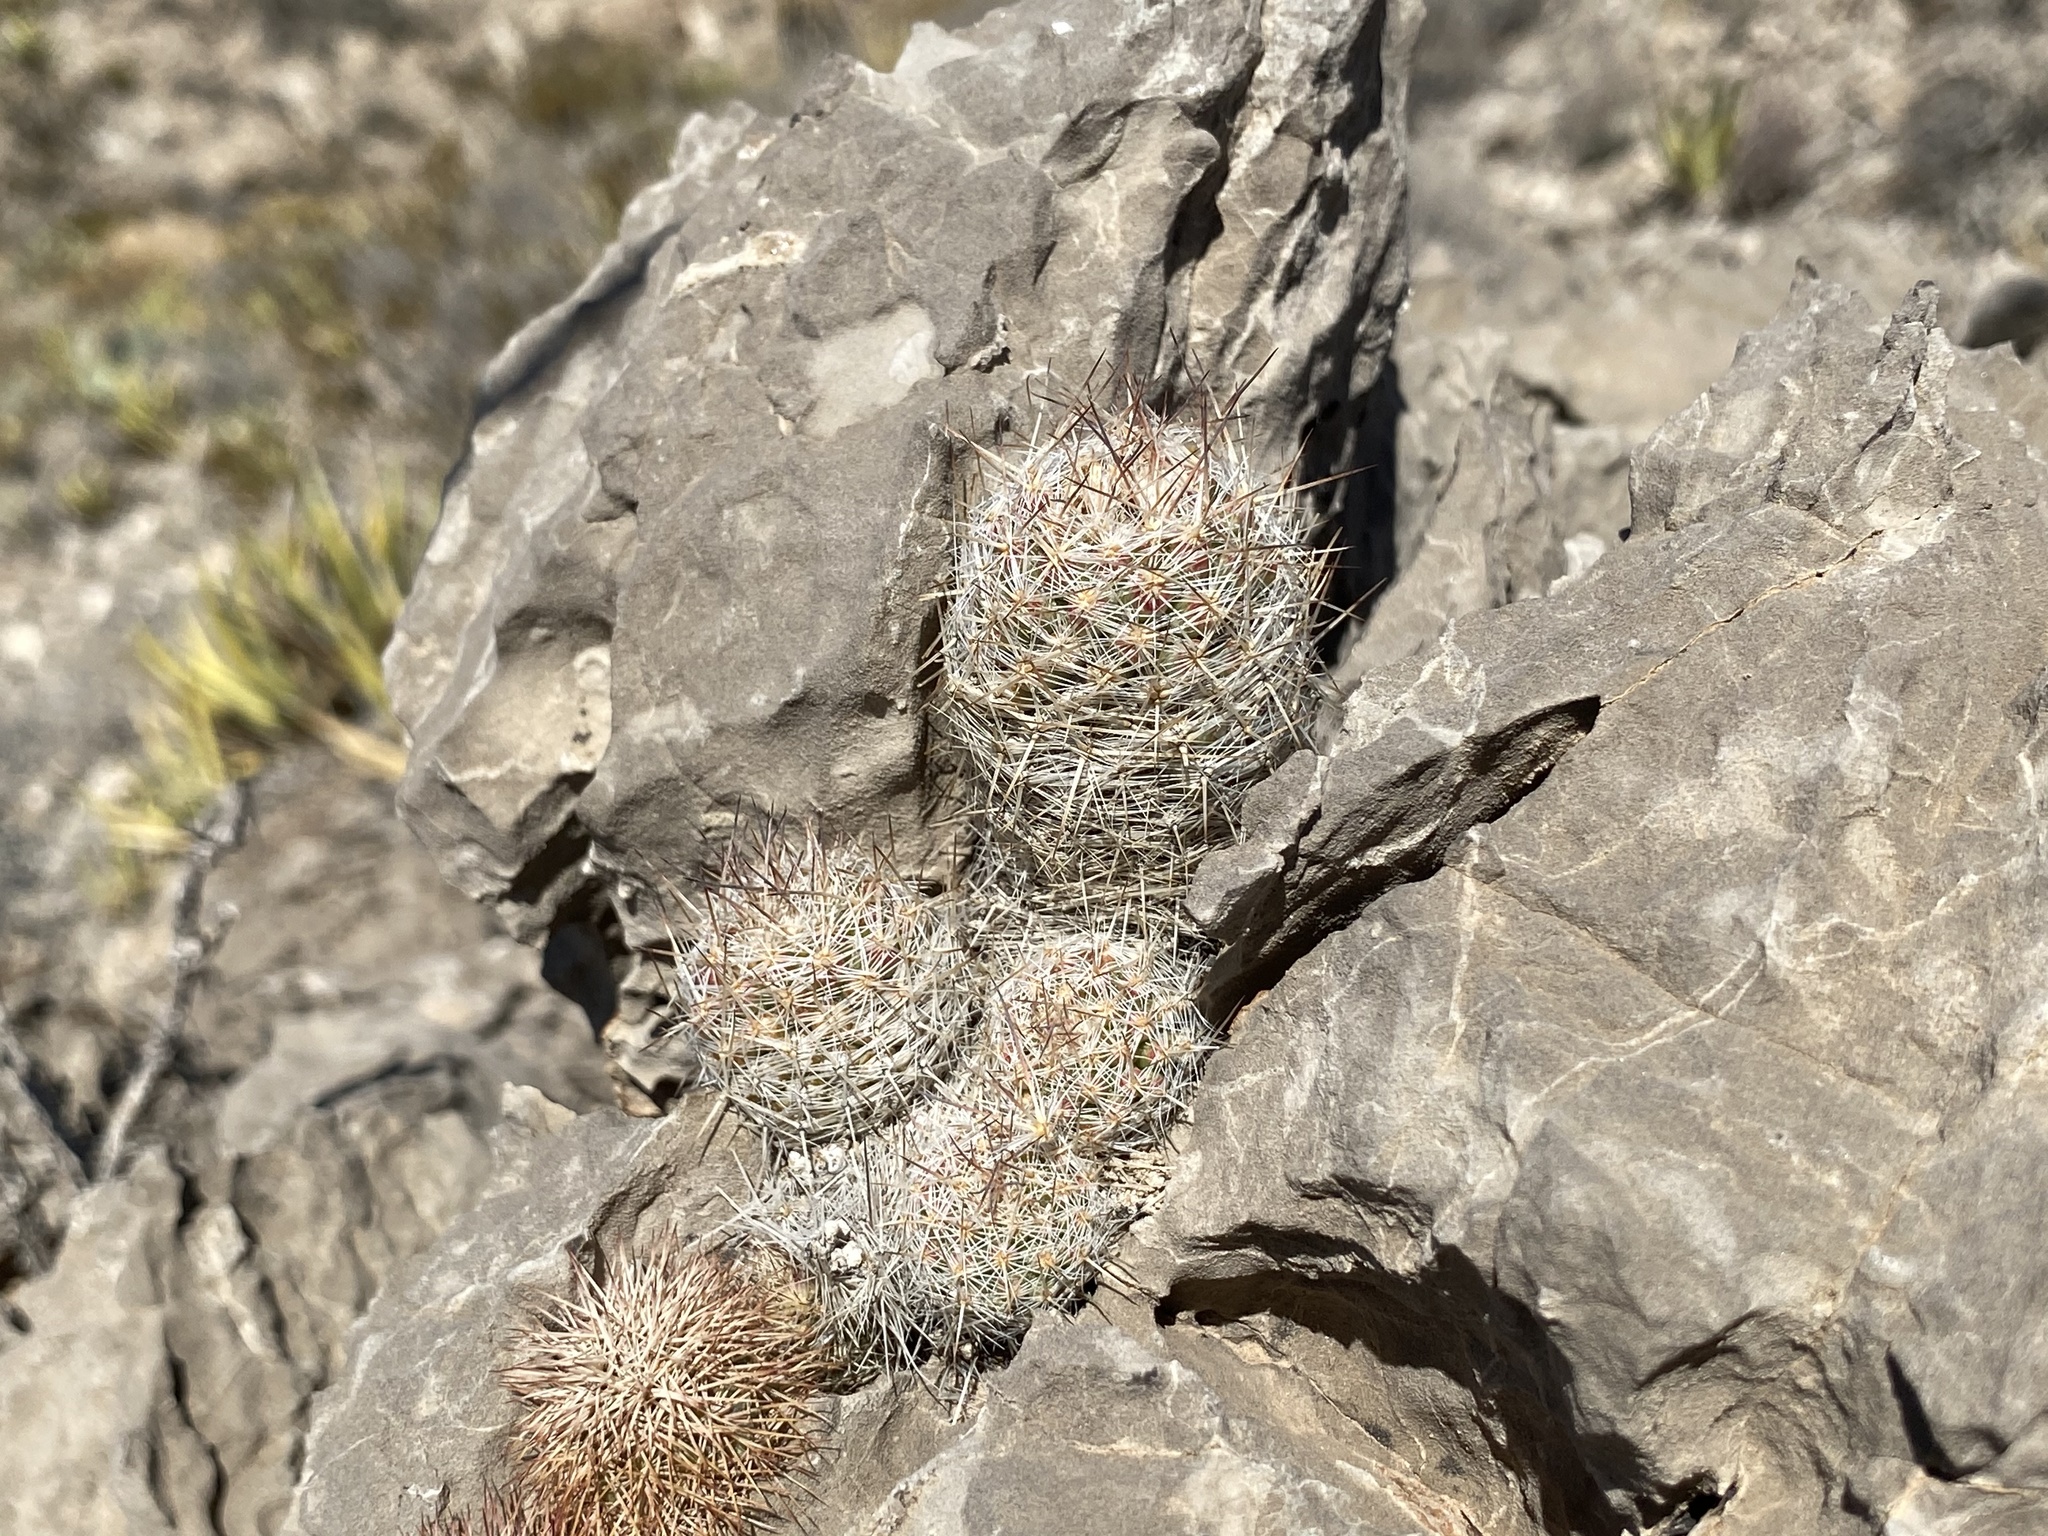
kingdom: Plantae
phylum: Tracheophyta
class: Magnoliopsida
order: Caryophyllales
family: Cactaceae
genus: Pelecyphora
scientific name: Pelecyphora tuberculosa
